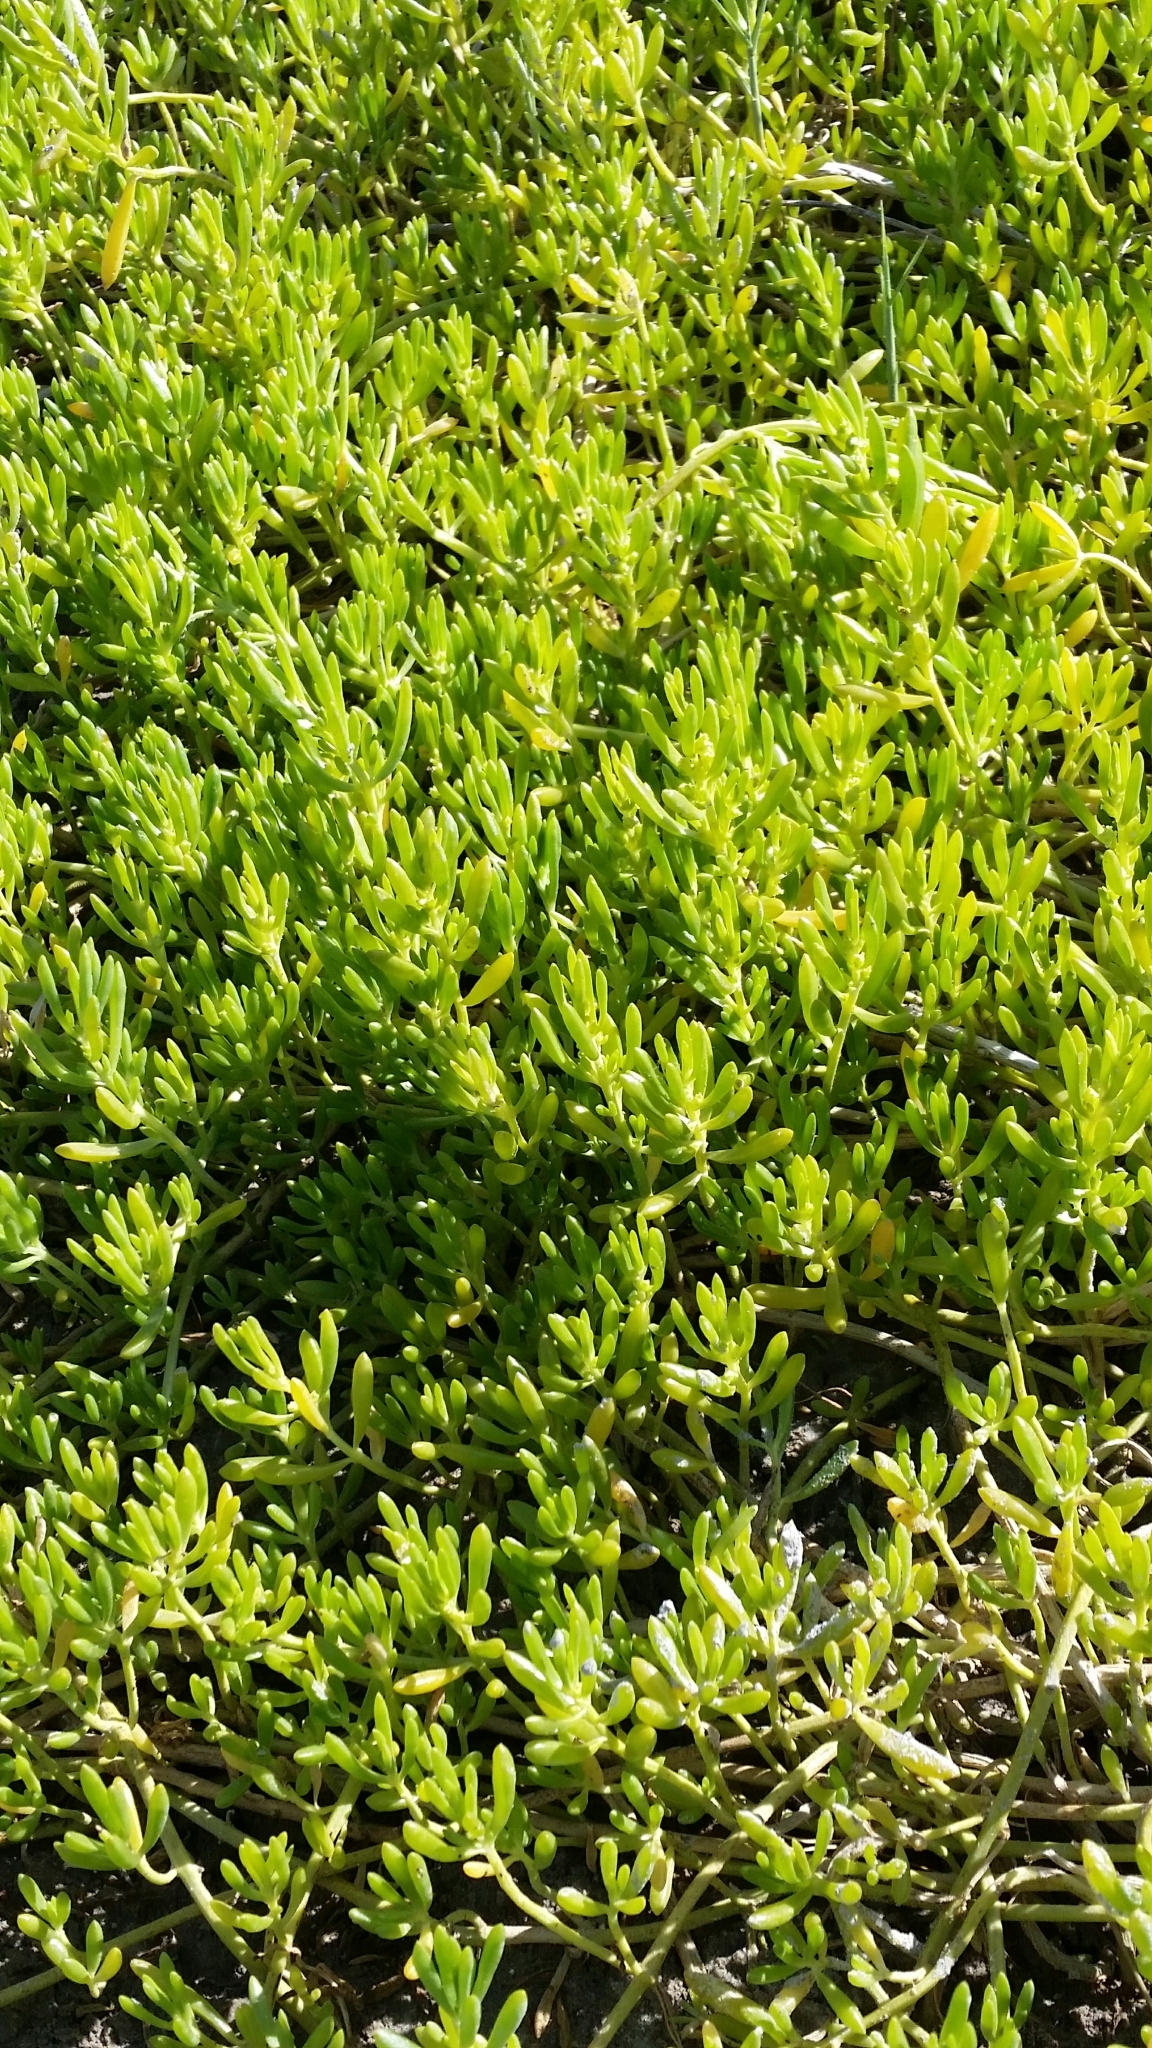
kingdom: Plantae
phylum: Tracheophyta
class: Magnoliopsida
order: Brassicales
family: Bataceae
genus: Batis
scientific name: Batis maritima
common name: Turtleweed
